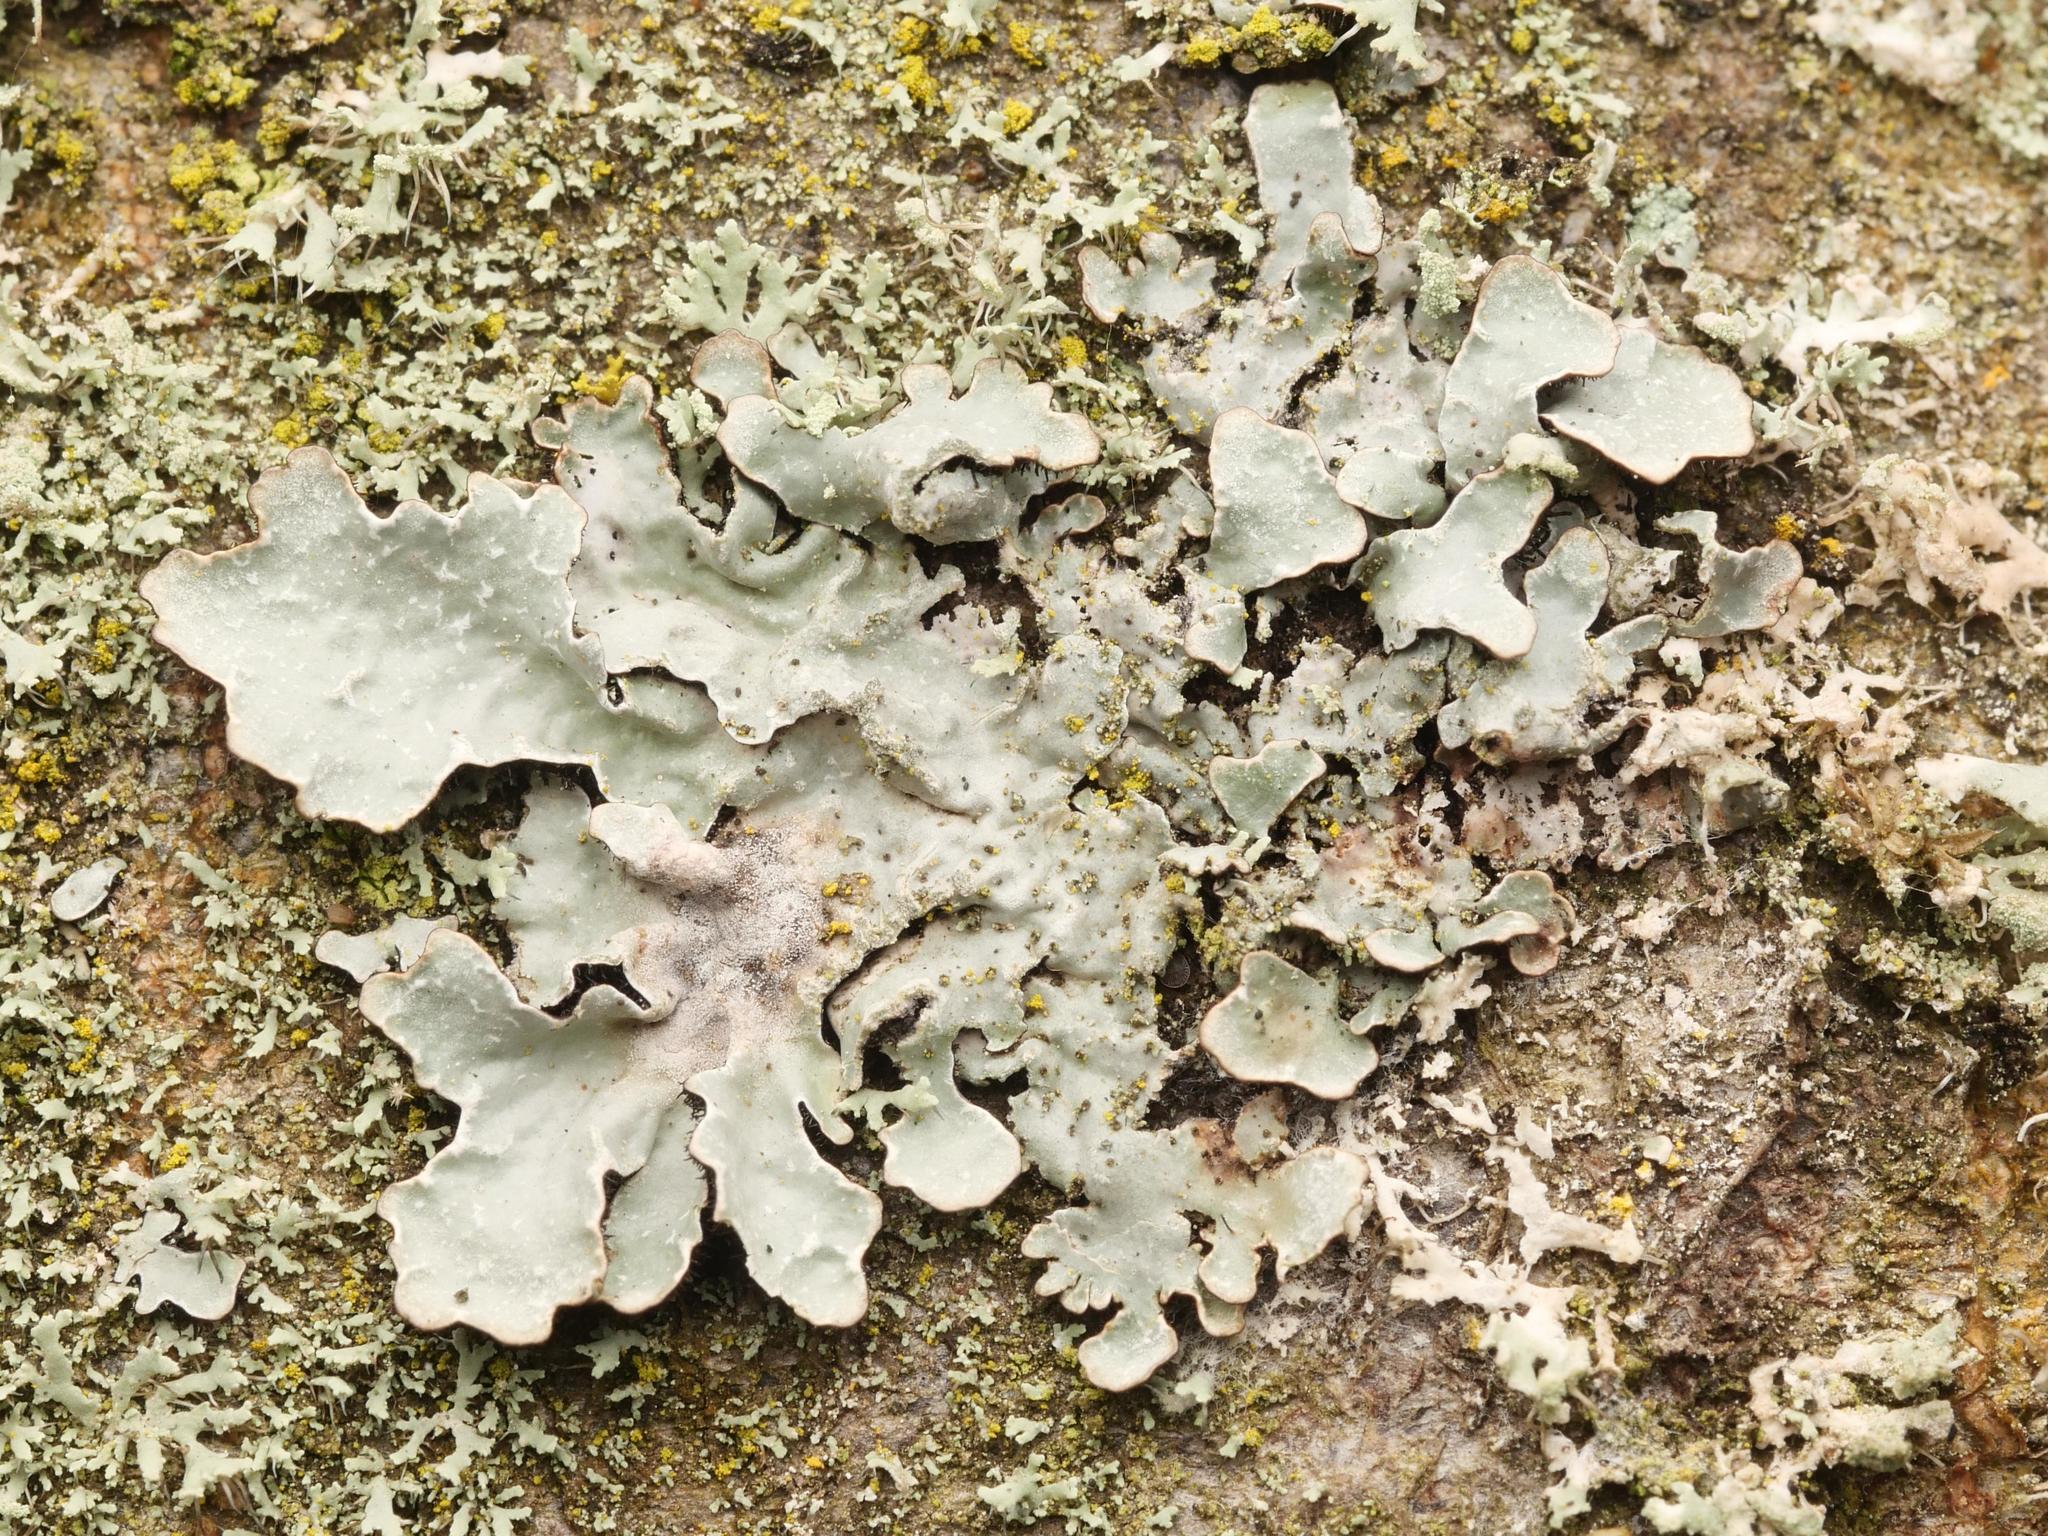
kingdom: Fungi
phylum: Ascomycota
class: Lecanoromycetes
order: Lecanorales
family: Parmeliaceae
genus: Parmelia
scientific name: Parmelia sulcata
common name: Netted shield lichen
